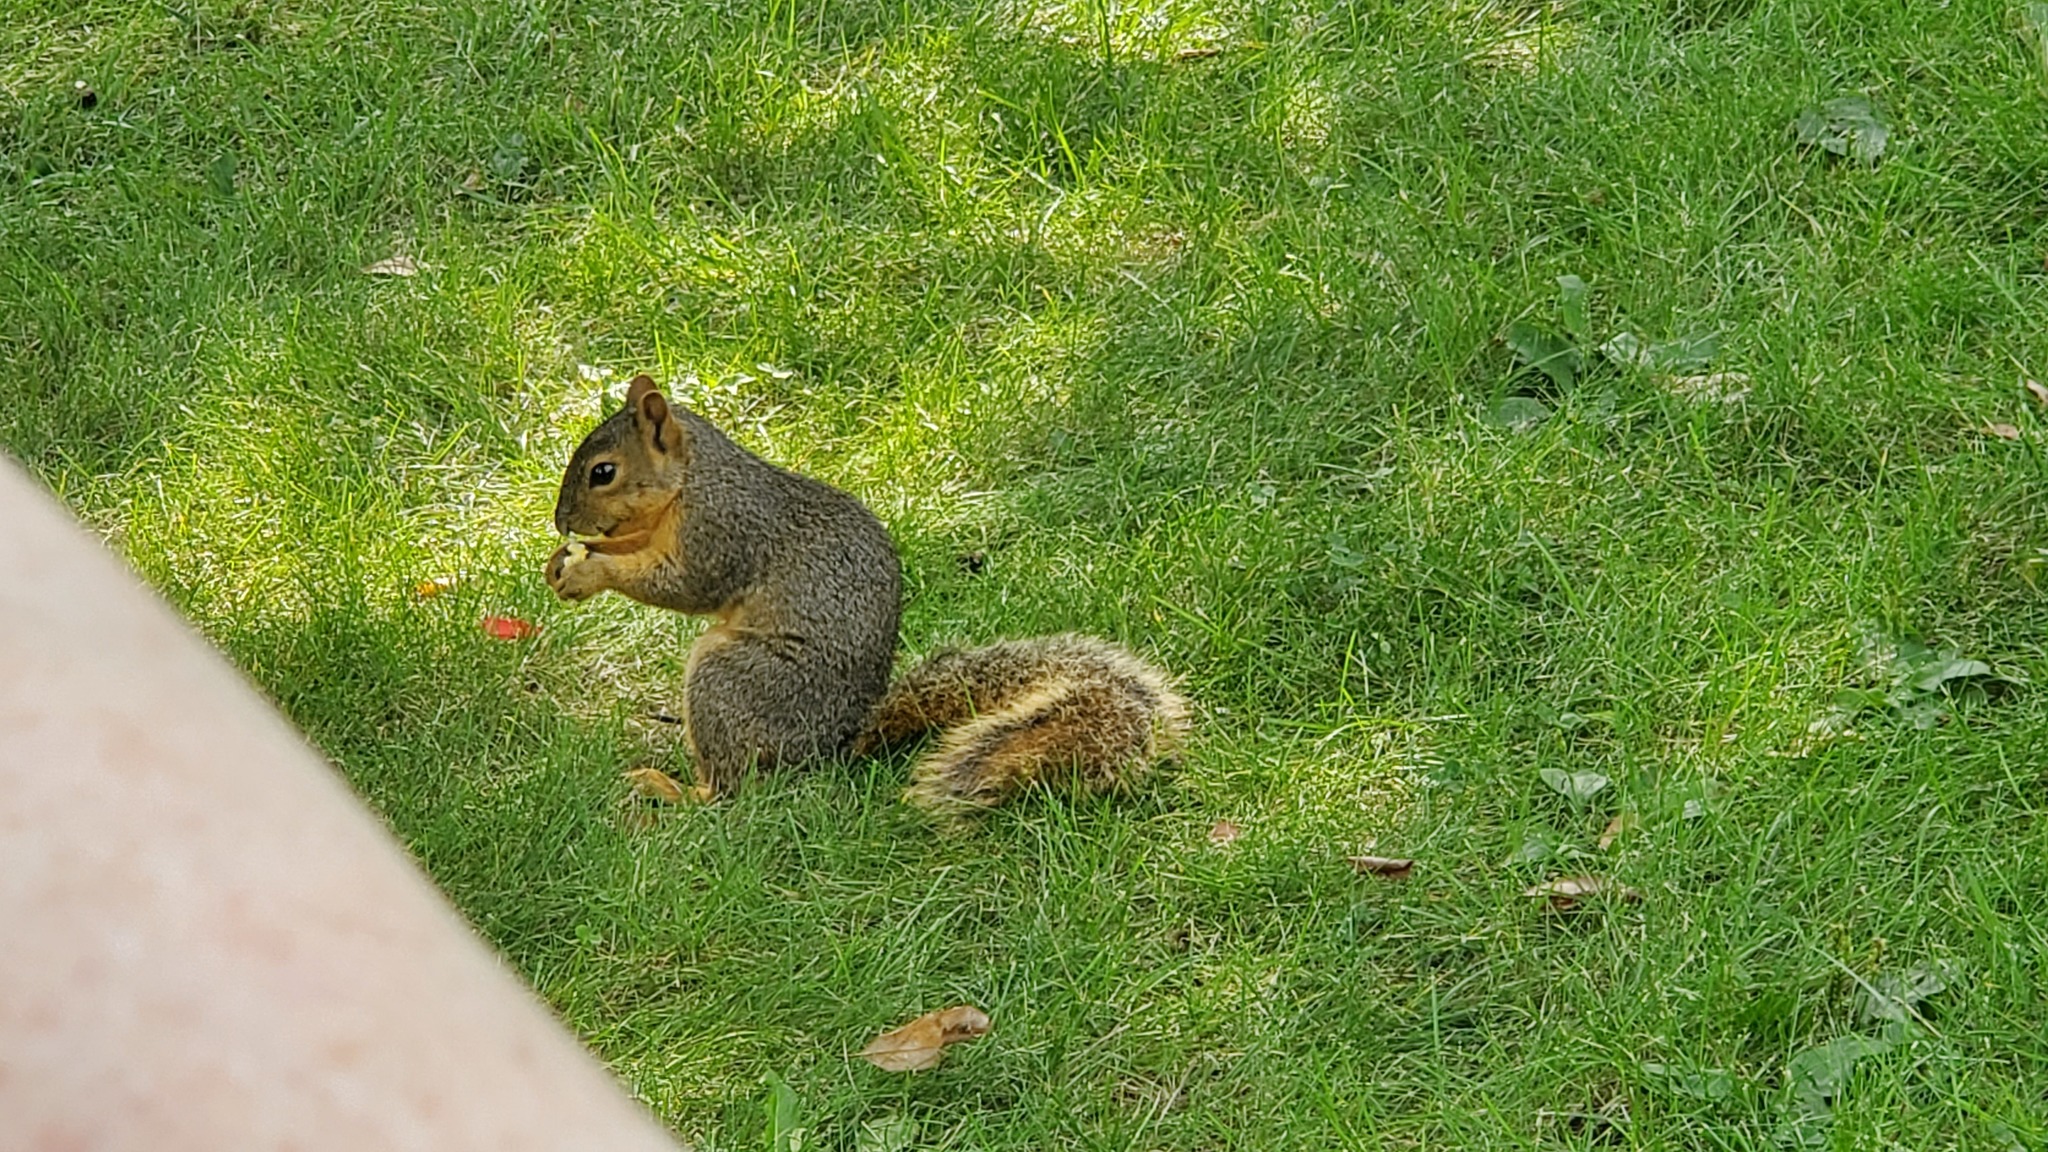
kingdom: Animalia
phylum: Chordata
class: Mammalia
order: Rodentia
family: Sciuridae
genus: Sciurus
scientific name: Sciurus niger
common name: Fox squirrel
